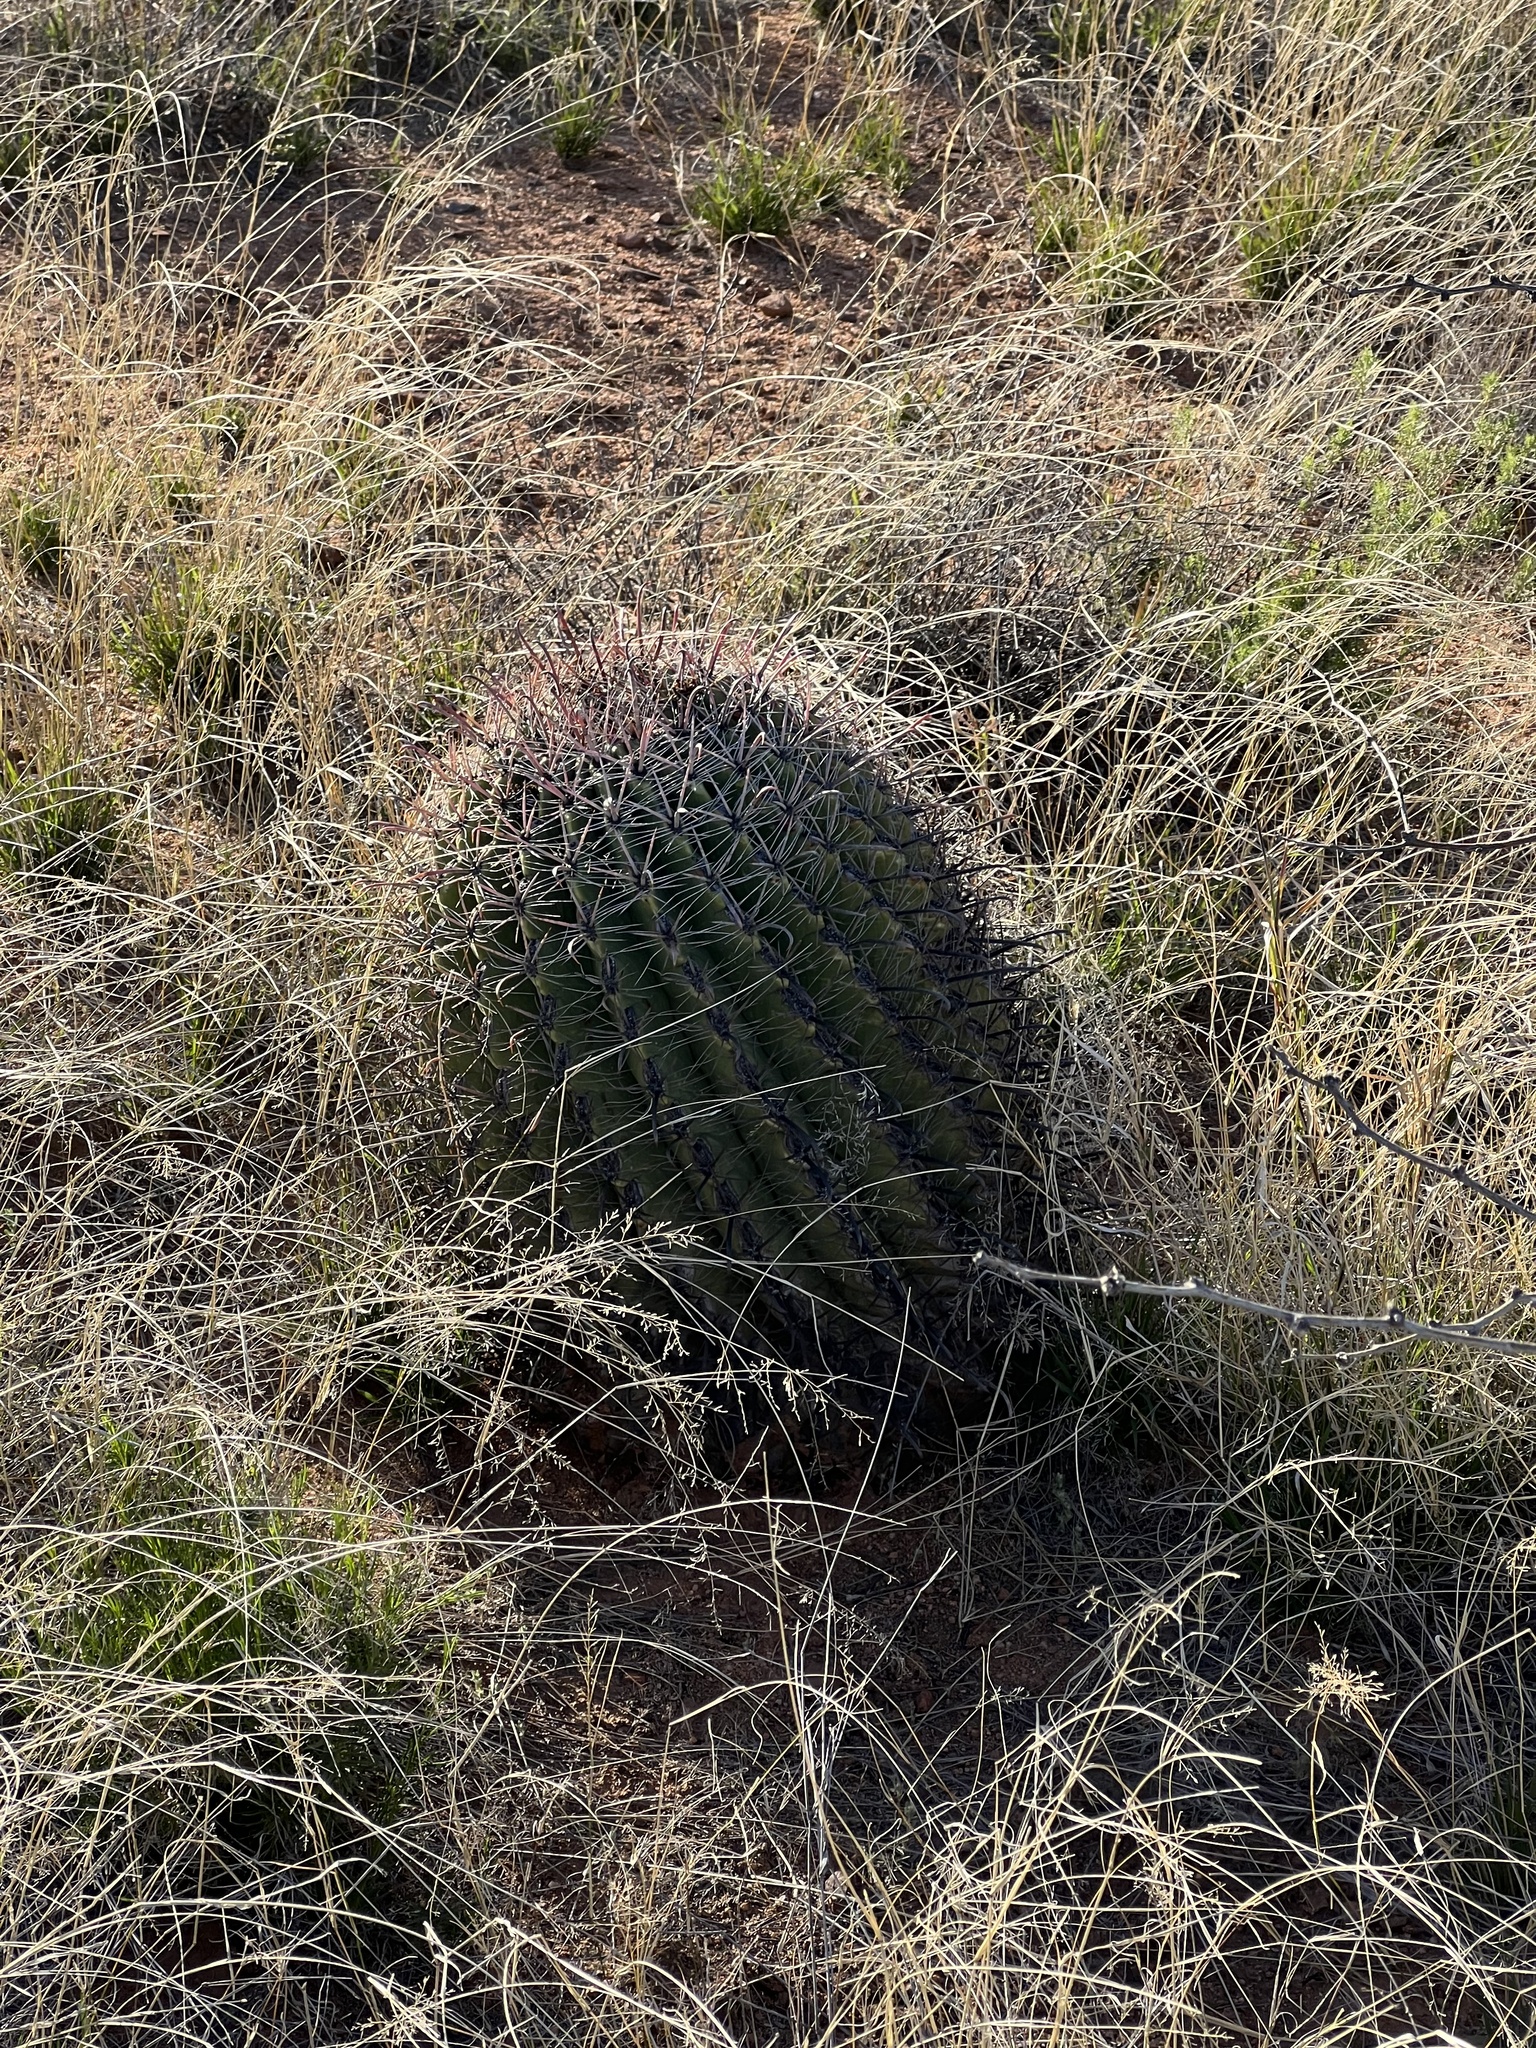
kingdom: Plantae
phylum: Tracheophyta
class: Magnoliopsida
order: Caryophyllales
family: Cactaceae
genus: Ferocactus
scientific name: Ferocactus wislizeni
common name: Candy barrel cactus
